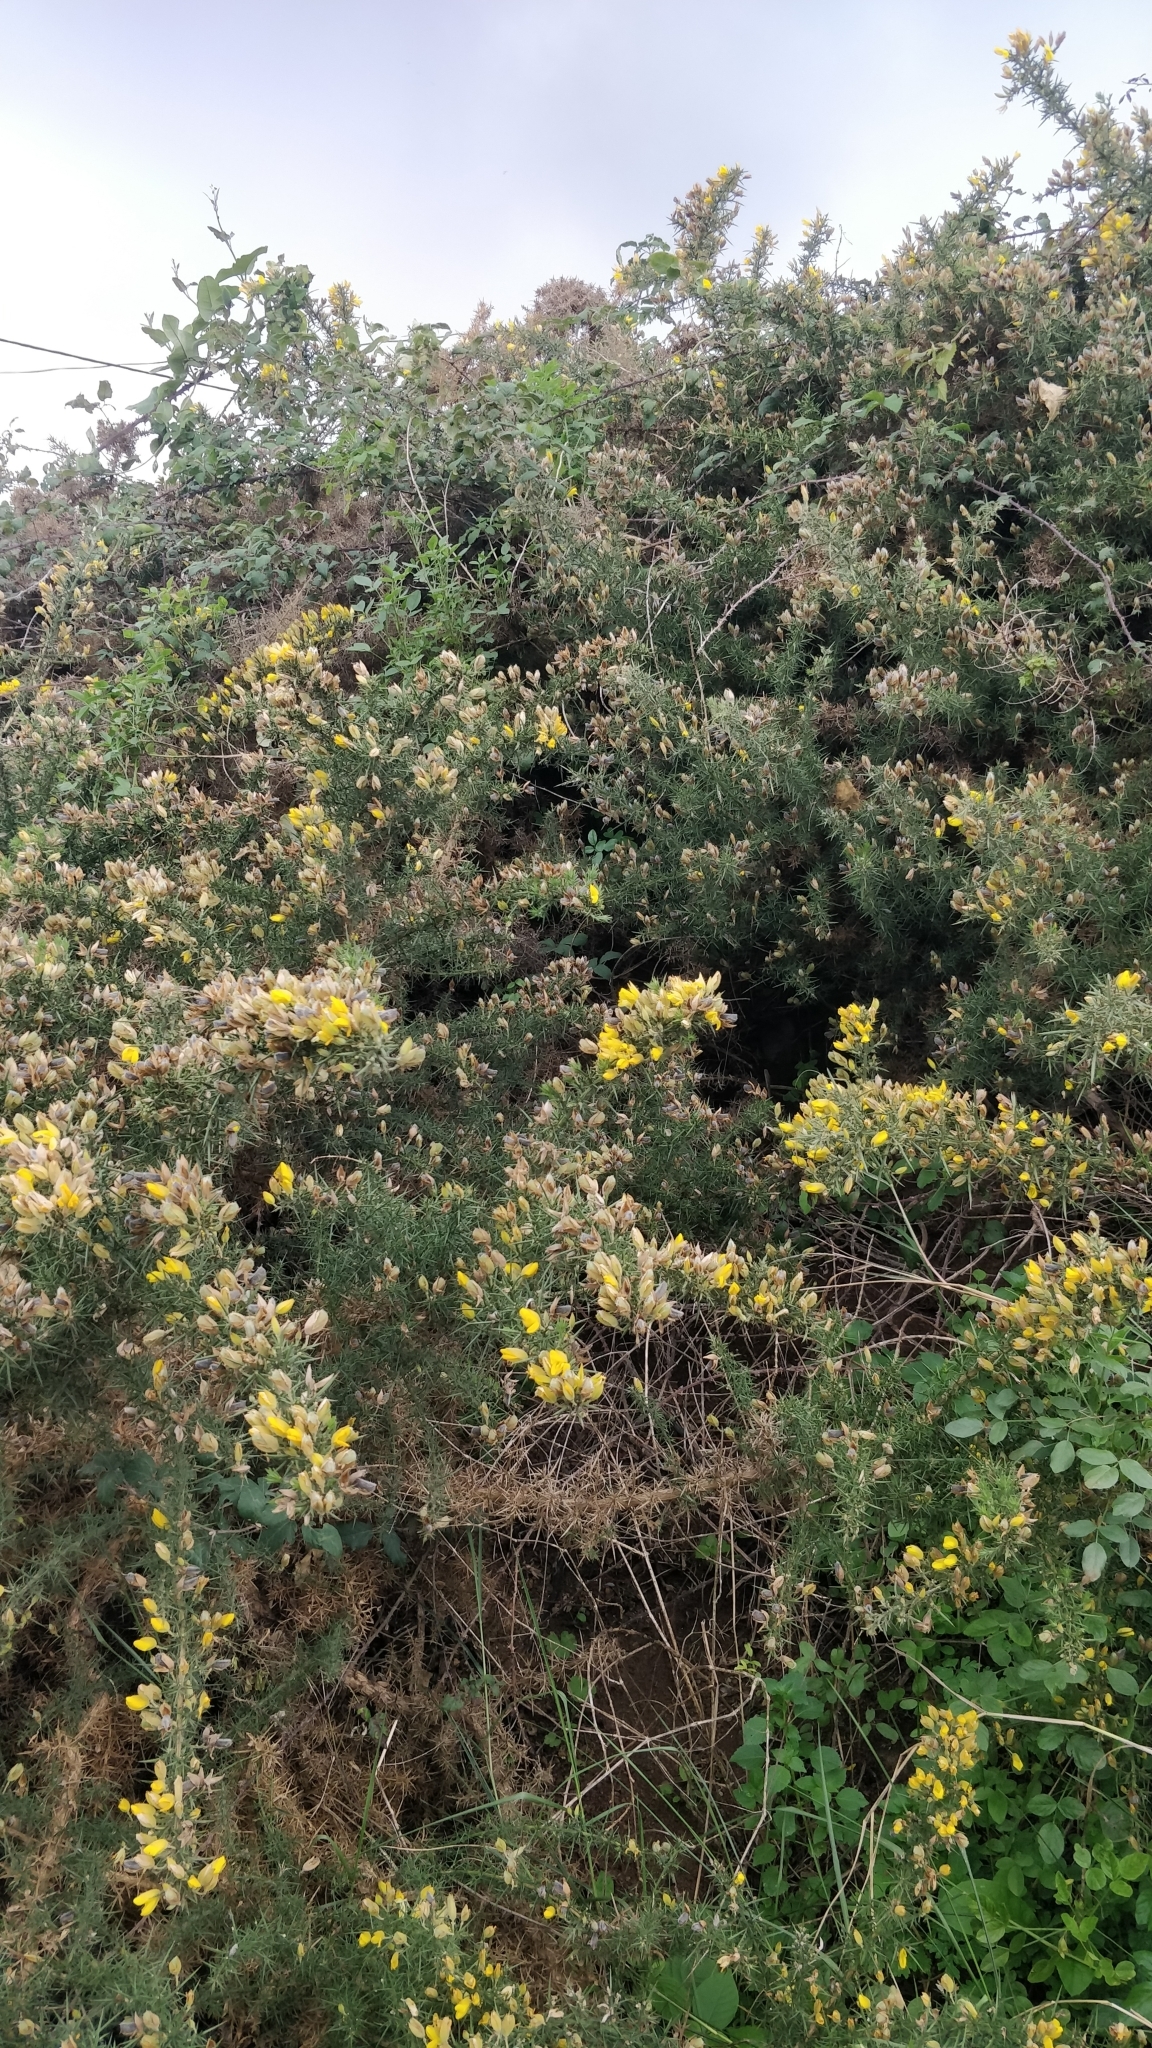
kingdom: Plantae
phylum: Tracheophyta
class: Magnoliopsida
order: Fabales
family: Fabaceae
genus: Ulex
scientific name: Ulex europaeus
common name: Common gorse
